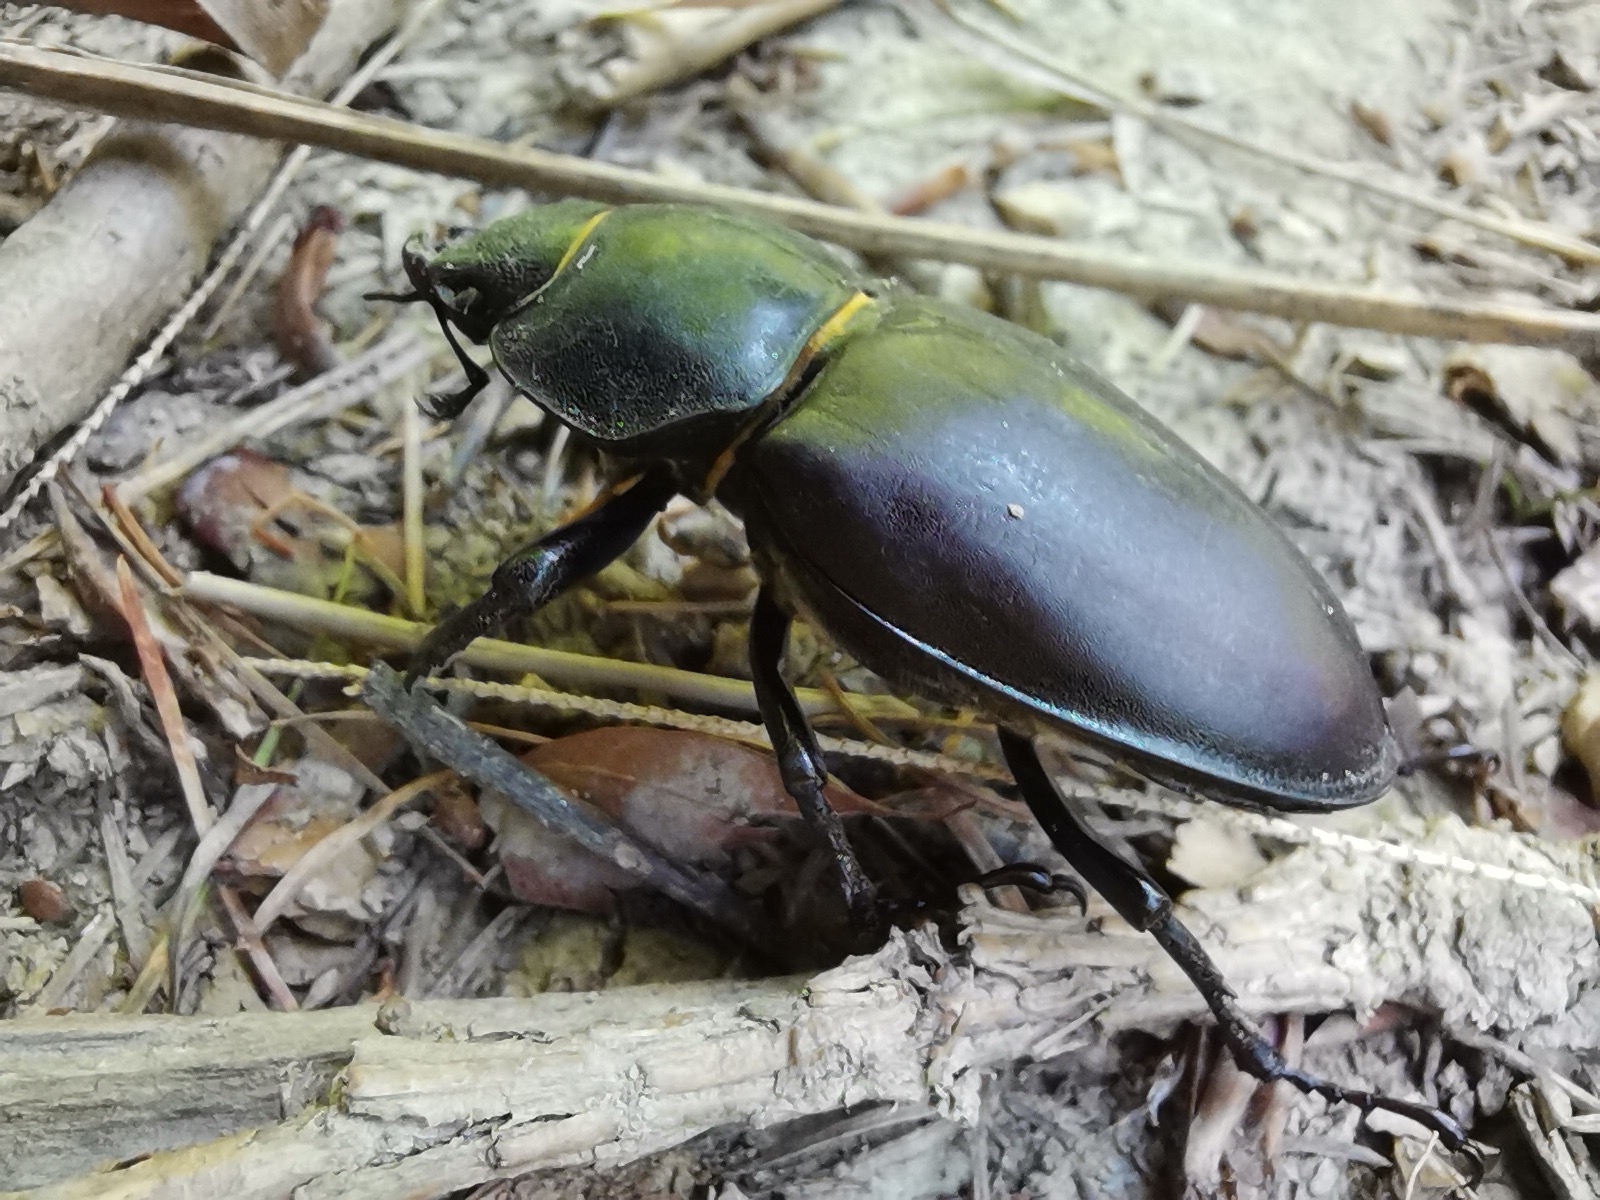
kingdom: Animalia
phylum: Arthropoda
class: Insecta
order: Coleoptera
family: Lucanidae
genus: Lucanus
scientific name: Lucanus cervus
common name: Stag beetle
